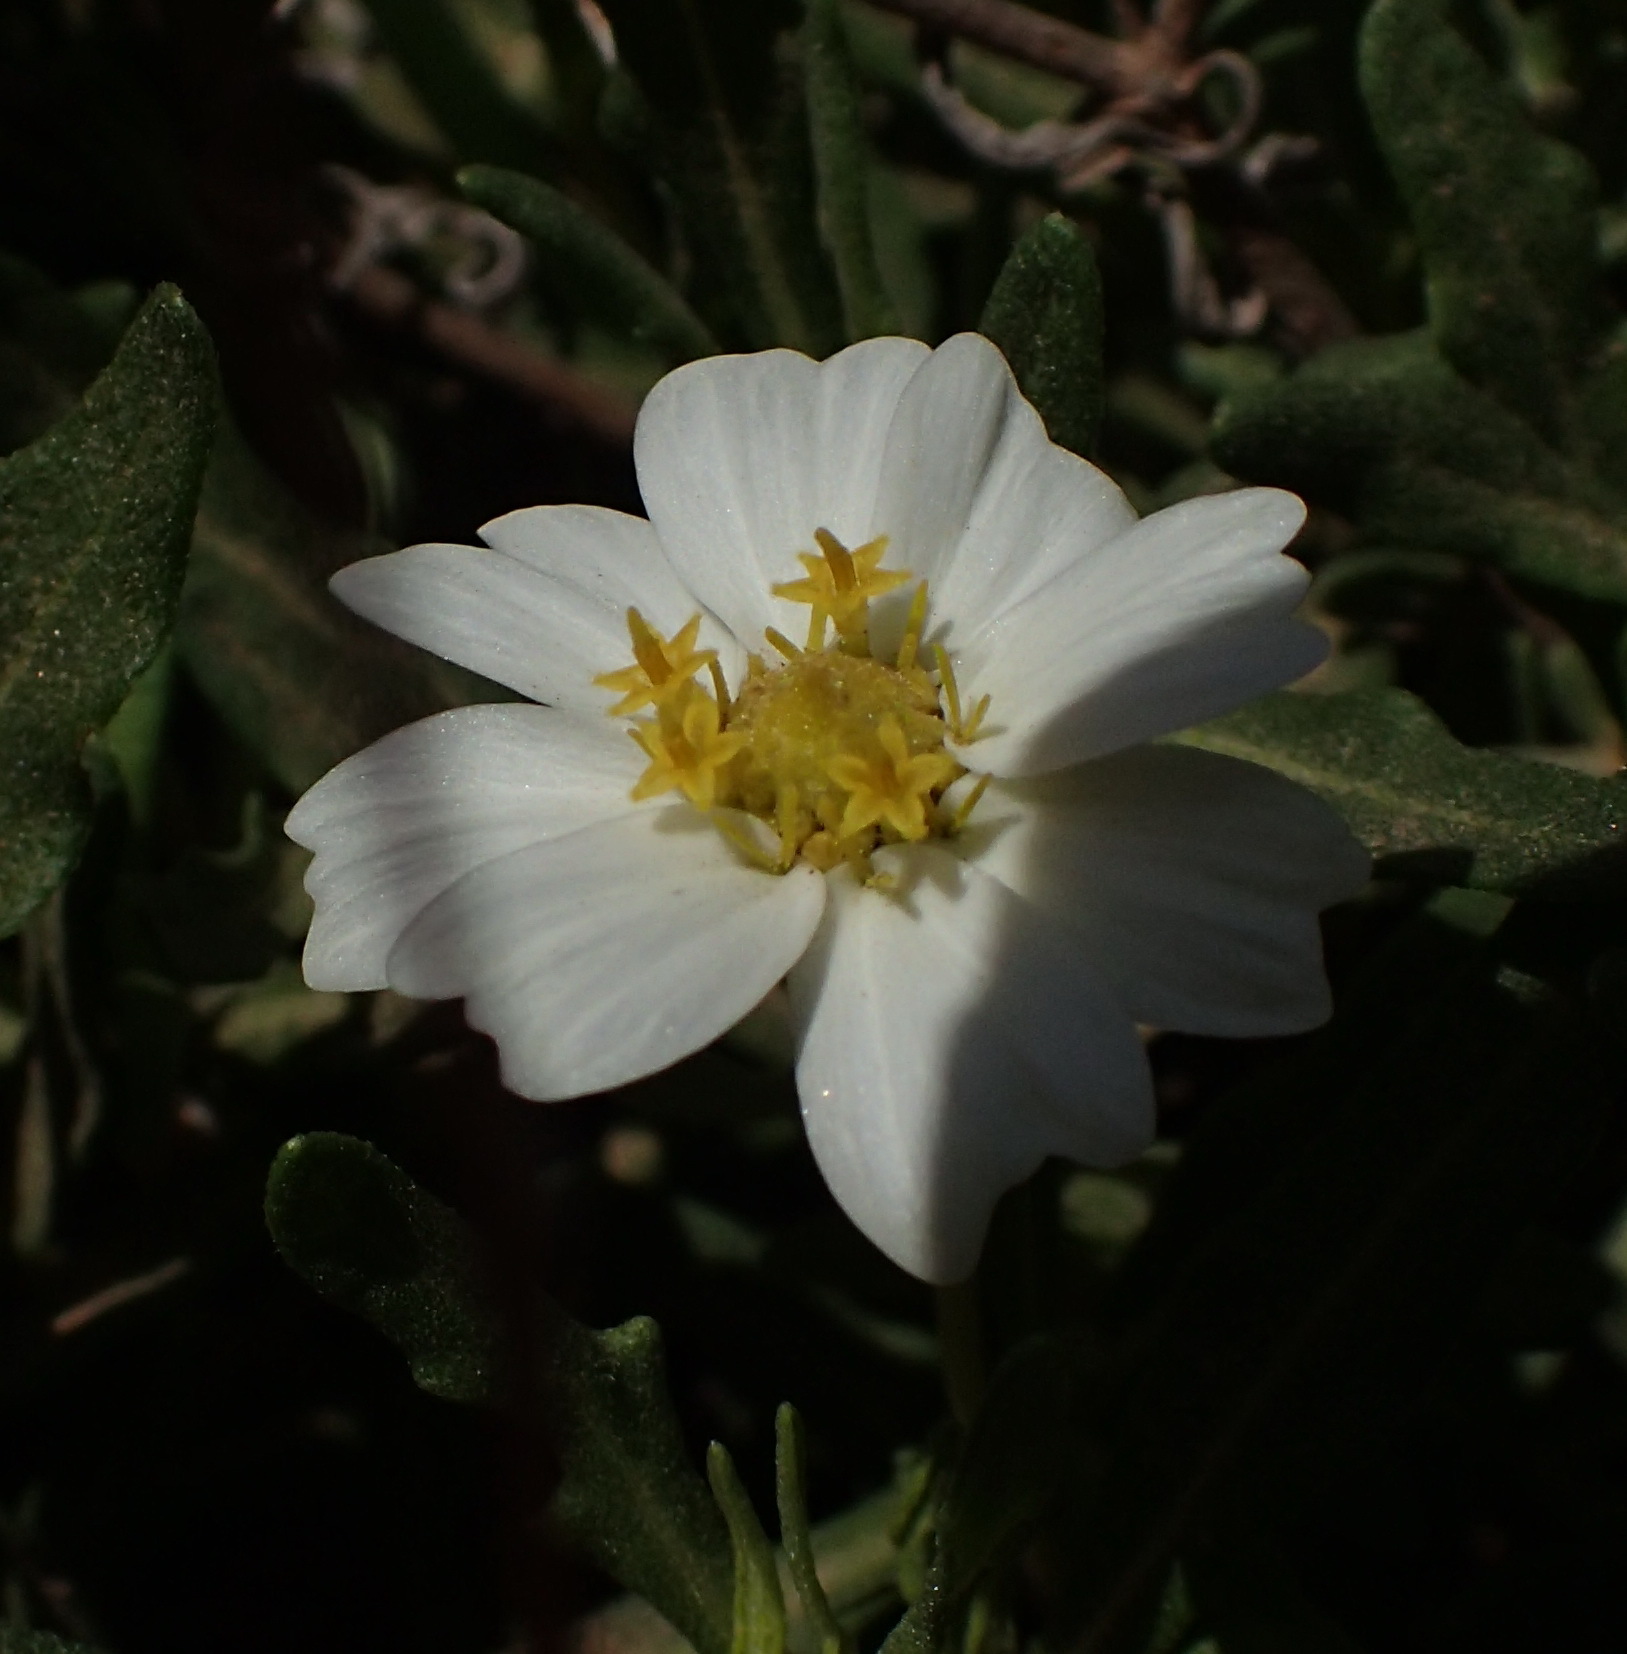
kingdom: Plantae
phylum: Tracheophyta
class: Magnoliopsida
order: Asterales
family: Asteraceae
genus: Melampodium
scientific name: Melampodium leucanthum
